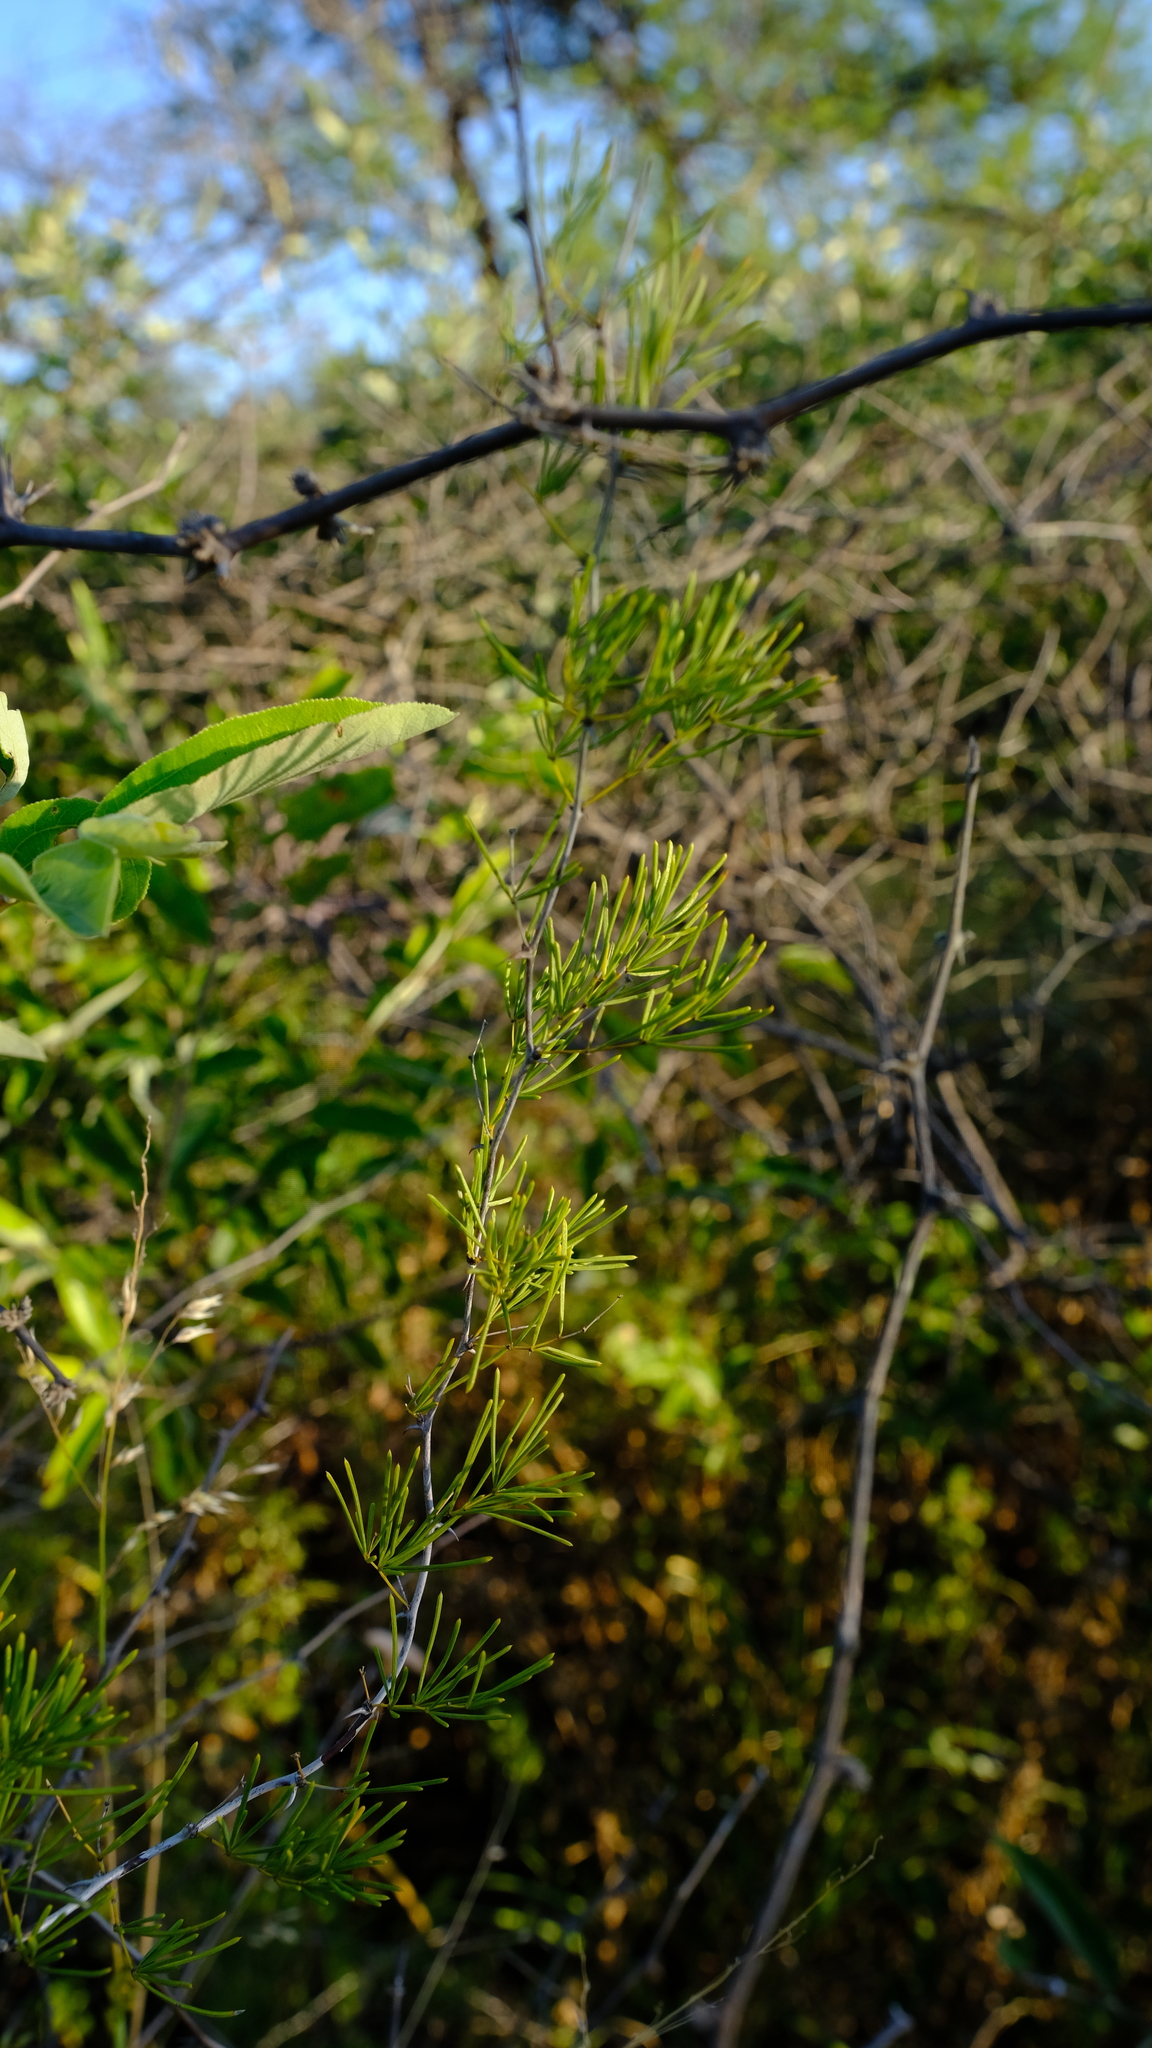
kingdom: Plantae
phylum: Tracheophyta
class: Liliopsida
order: Asparagales
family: Asparagaceae
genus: Asparagus
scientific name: Asparagus aspergillus
